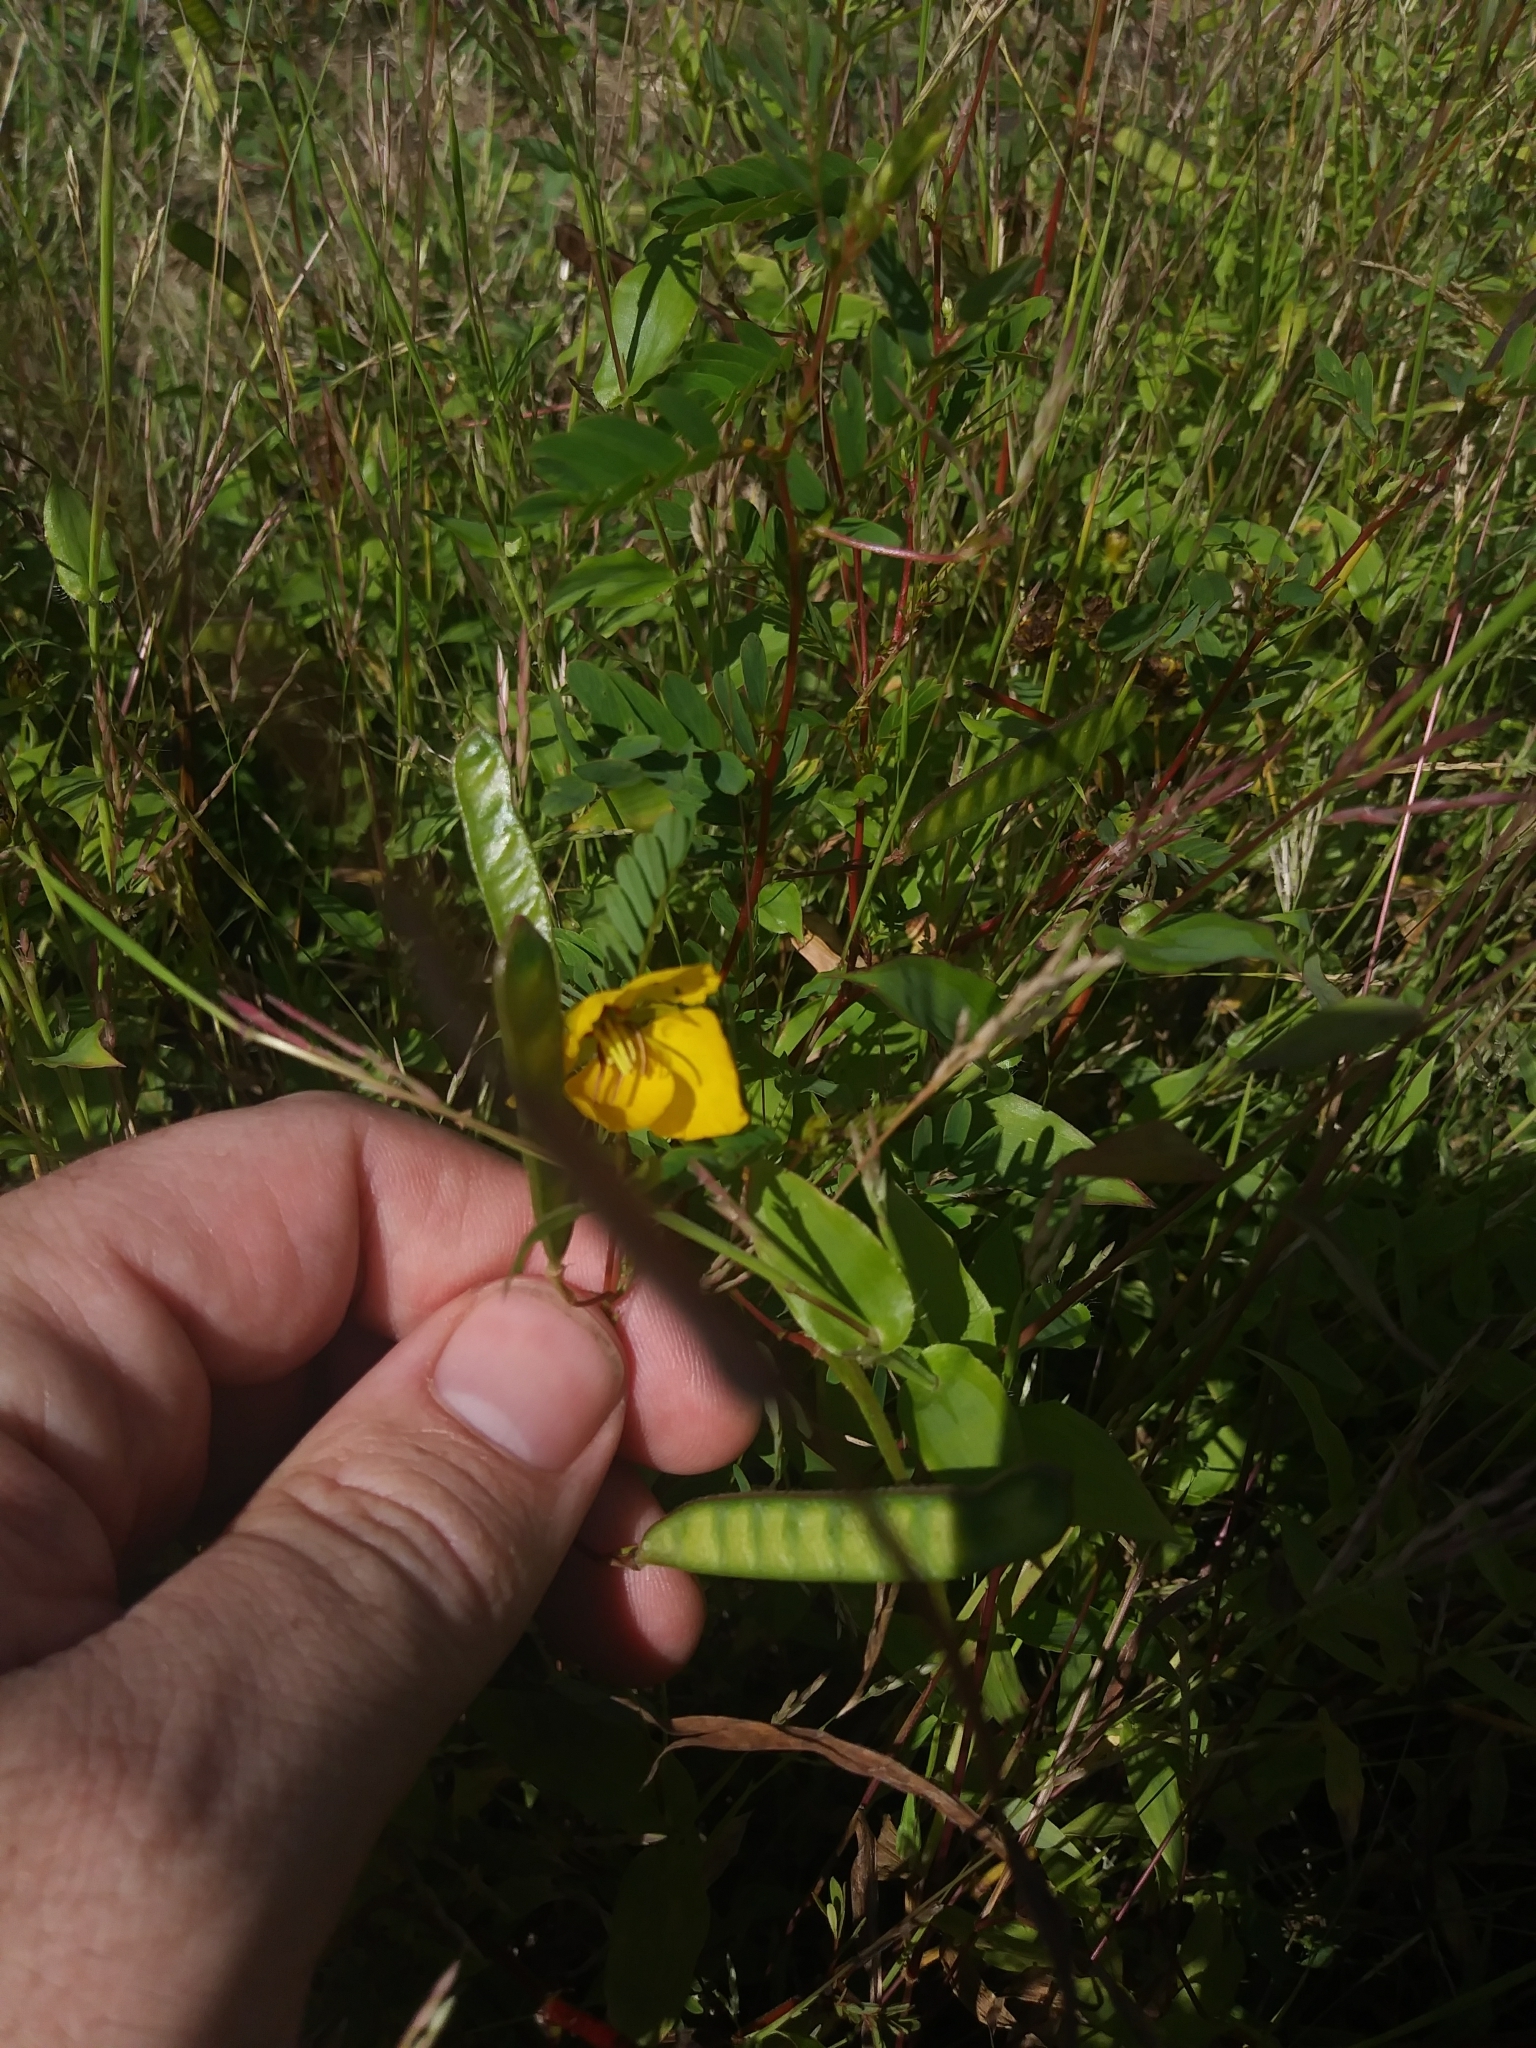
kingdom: Plantae
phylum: Tracheophyta
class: Magnoliopsida
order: Fabales
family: Fabaceae
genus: Chamaecrista
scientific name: Chamaecrista fasciculata
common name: Golden cassia
